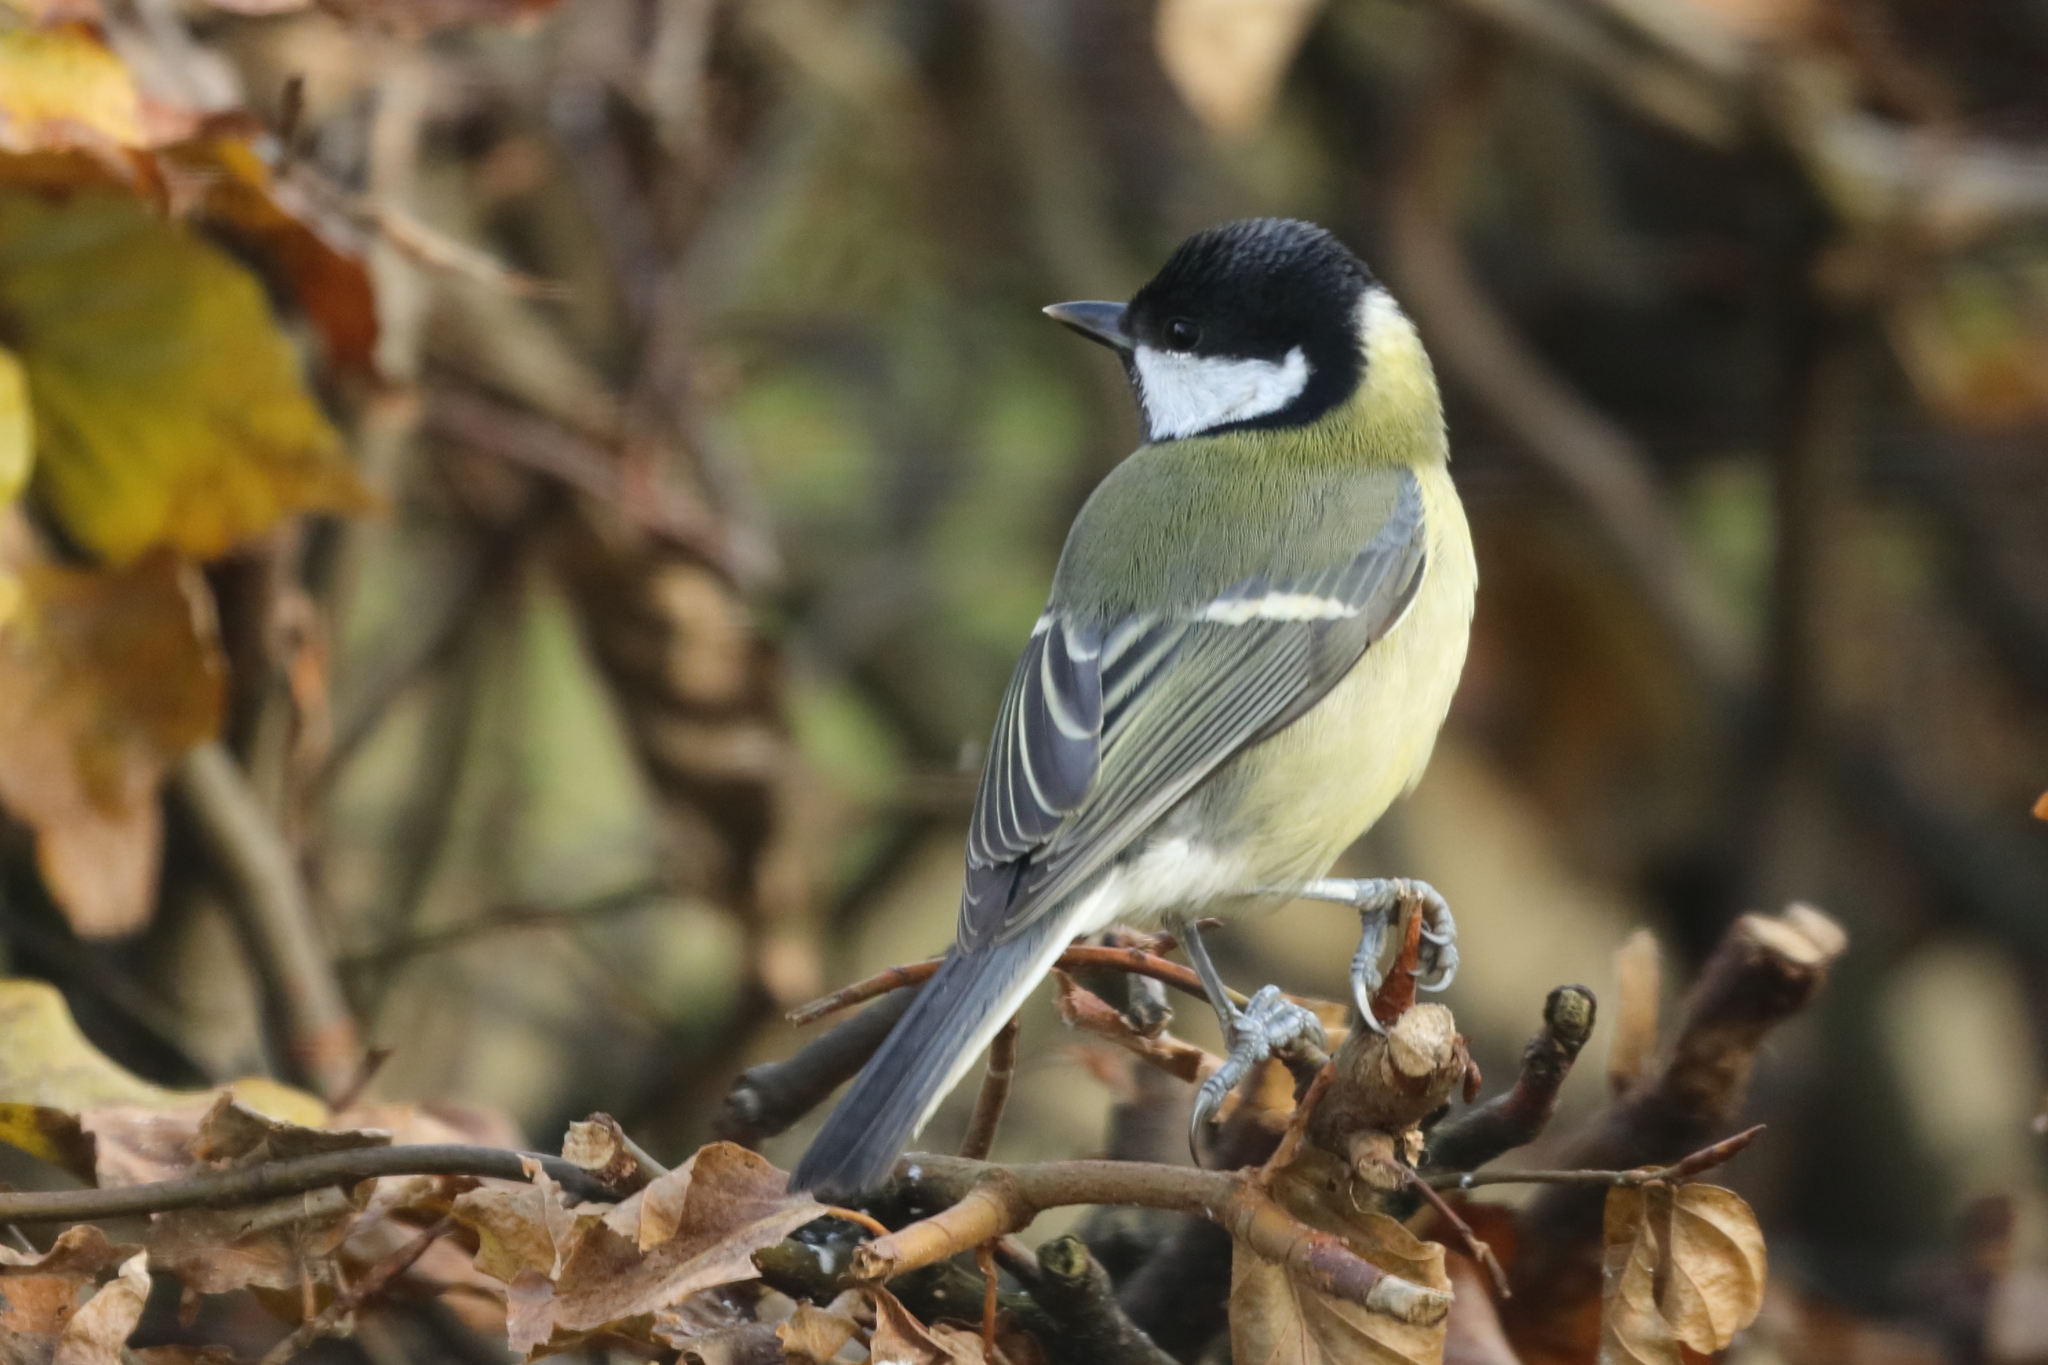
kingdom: Animalia
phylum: Chordata
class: Aves
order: Passeriformes
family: Paridae
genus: Parus
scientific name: Parus major
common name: Great tit
